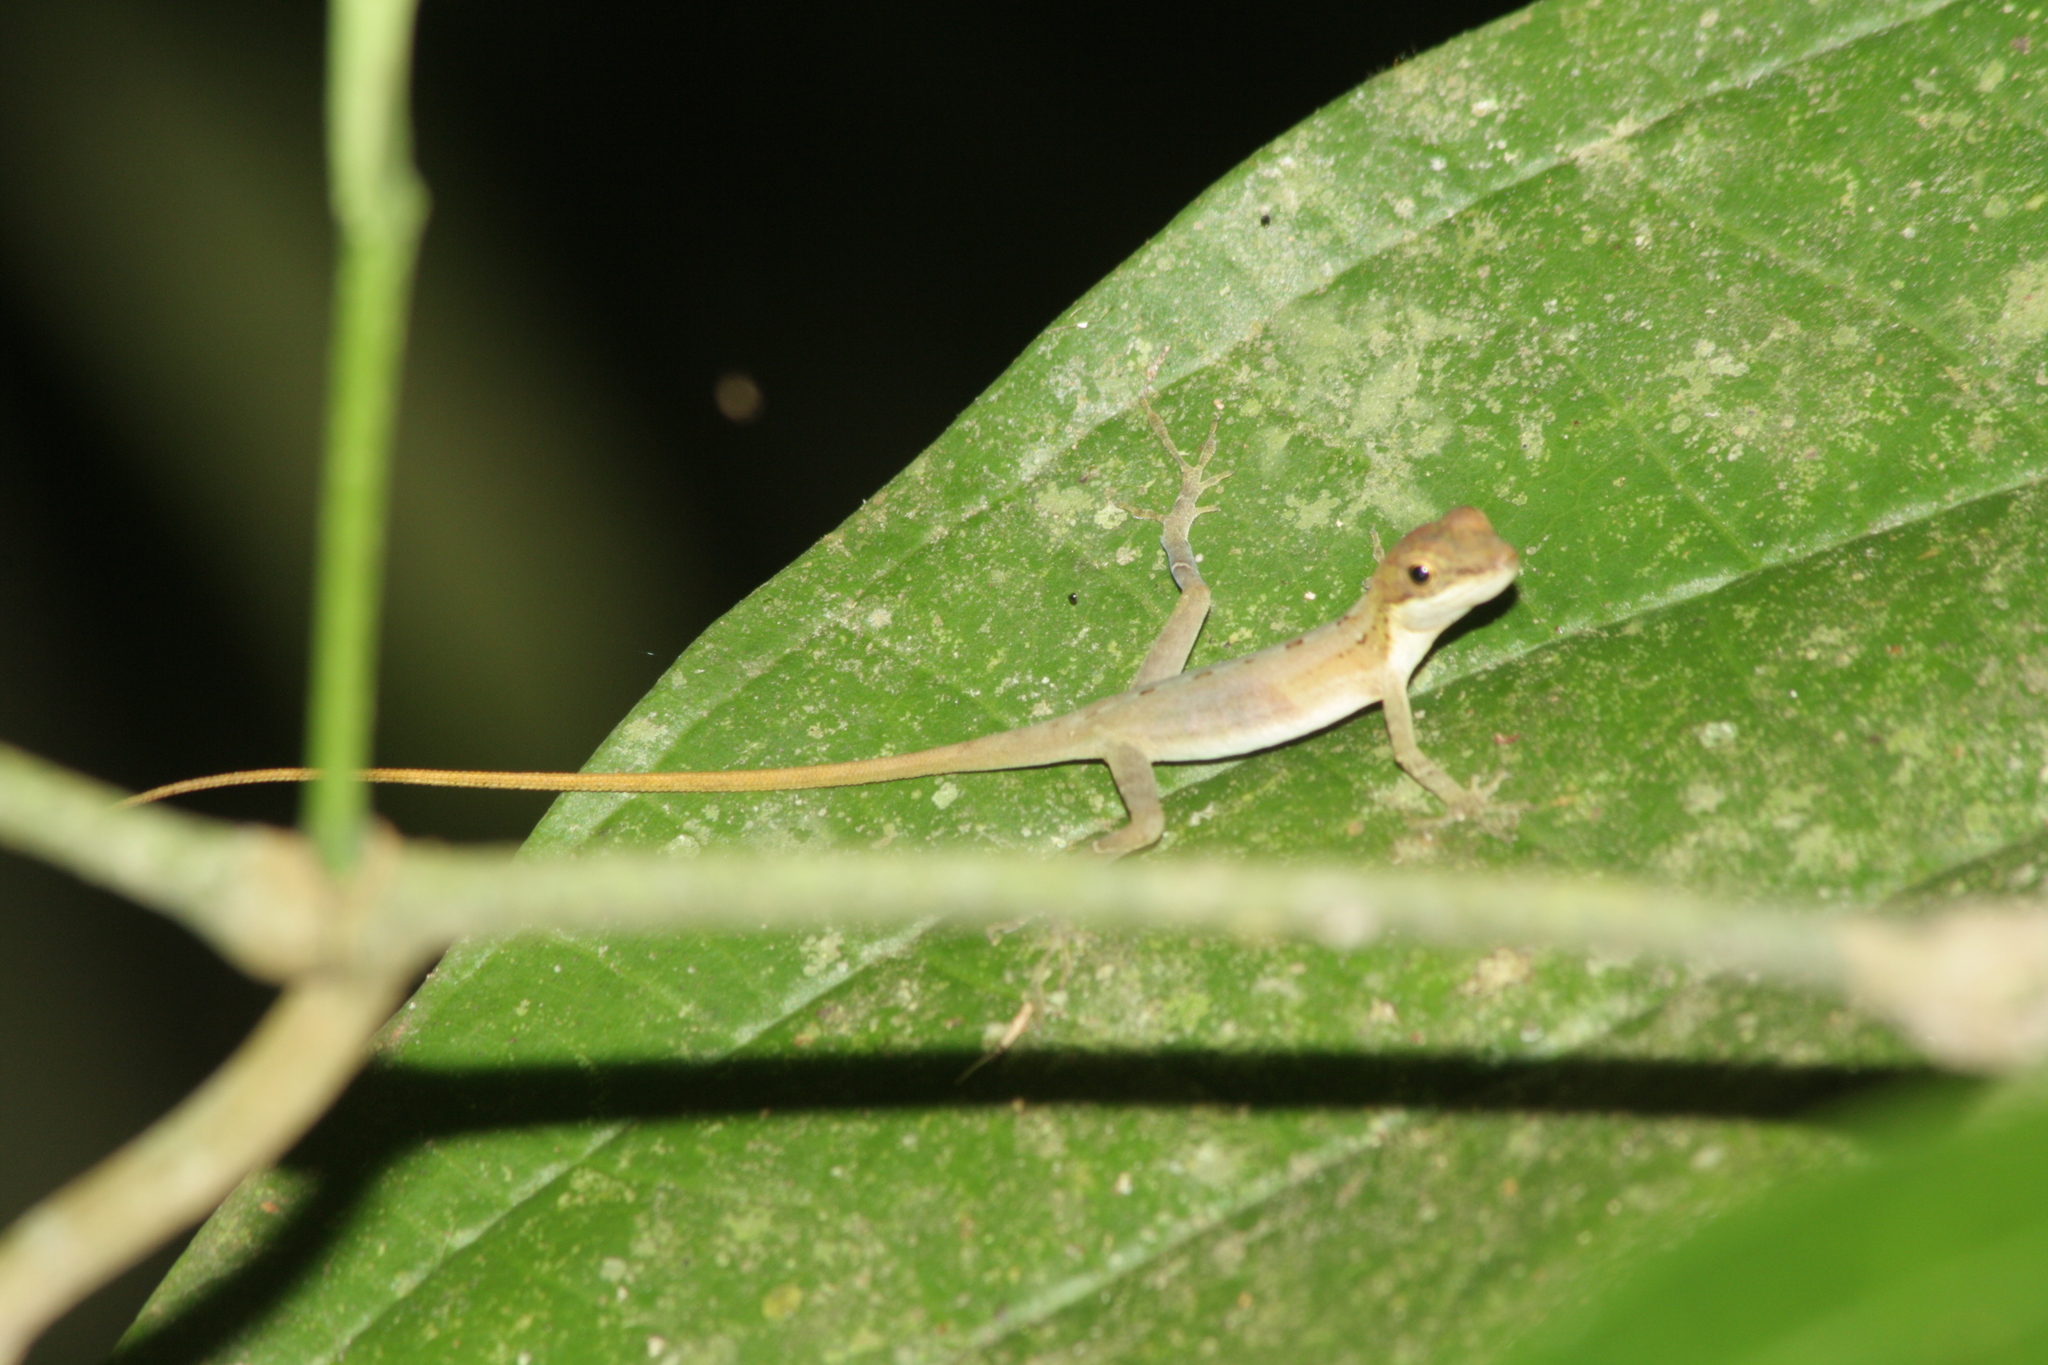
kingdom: Animalia
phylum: Chordata
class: Squamata
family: Dactyloidae
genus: Anolis
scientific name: Anolis limifrons
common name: Border anole
